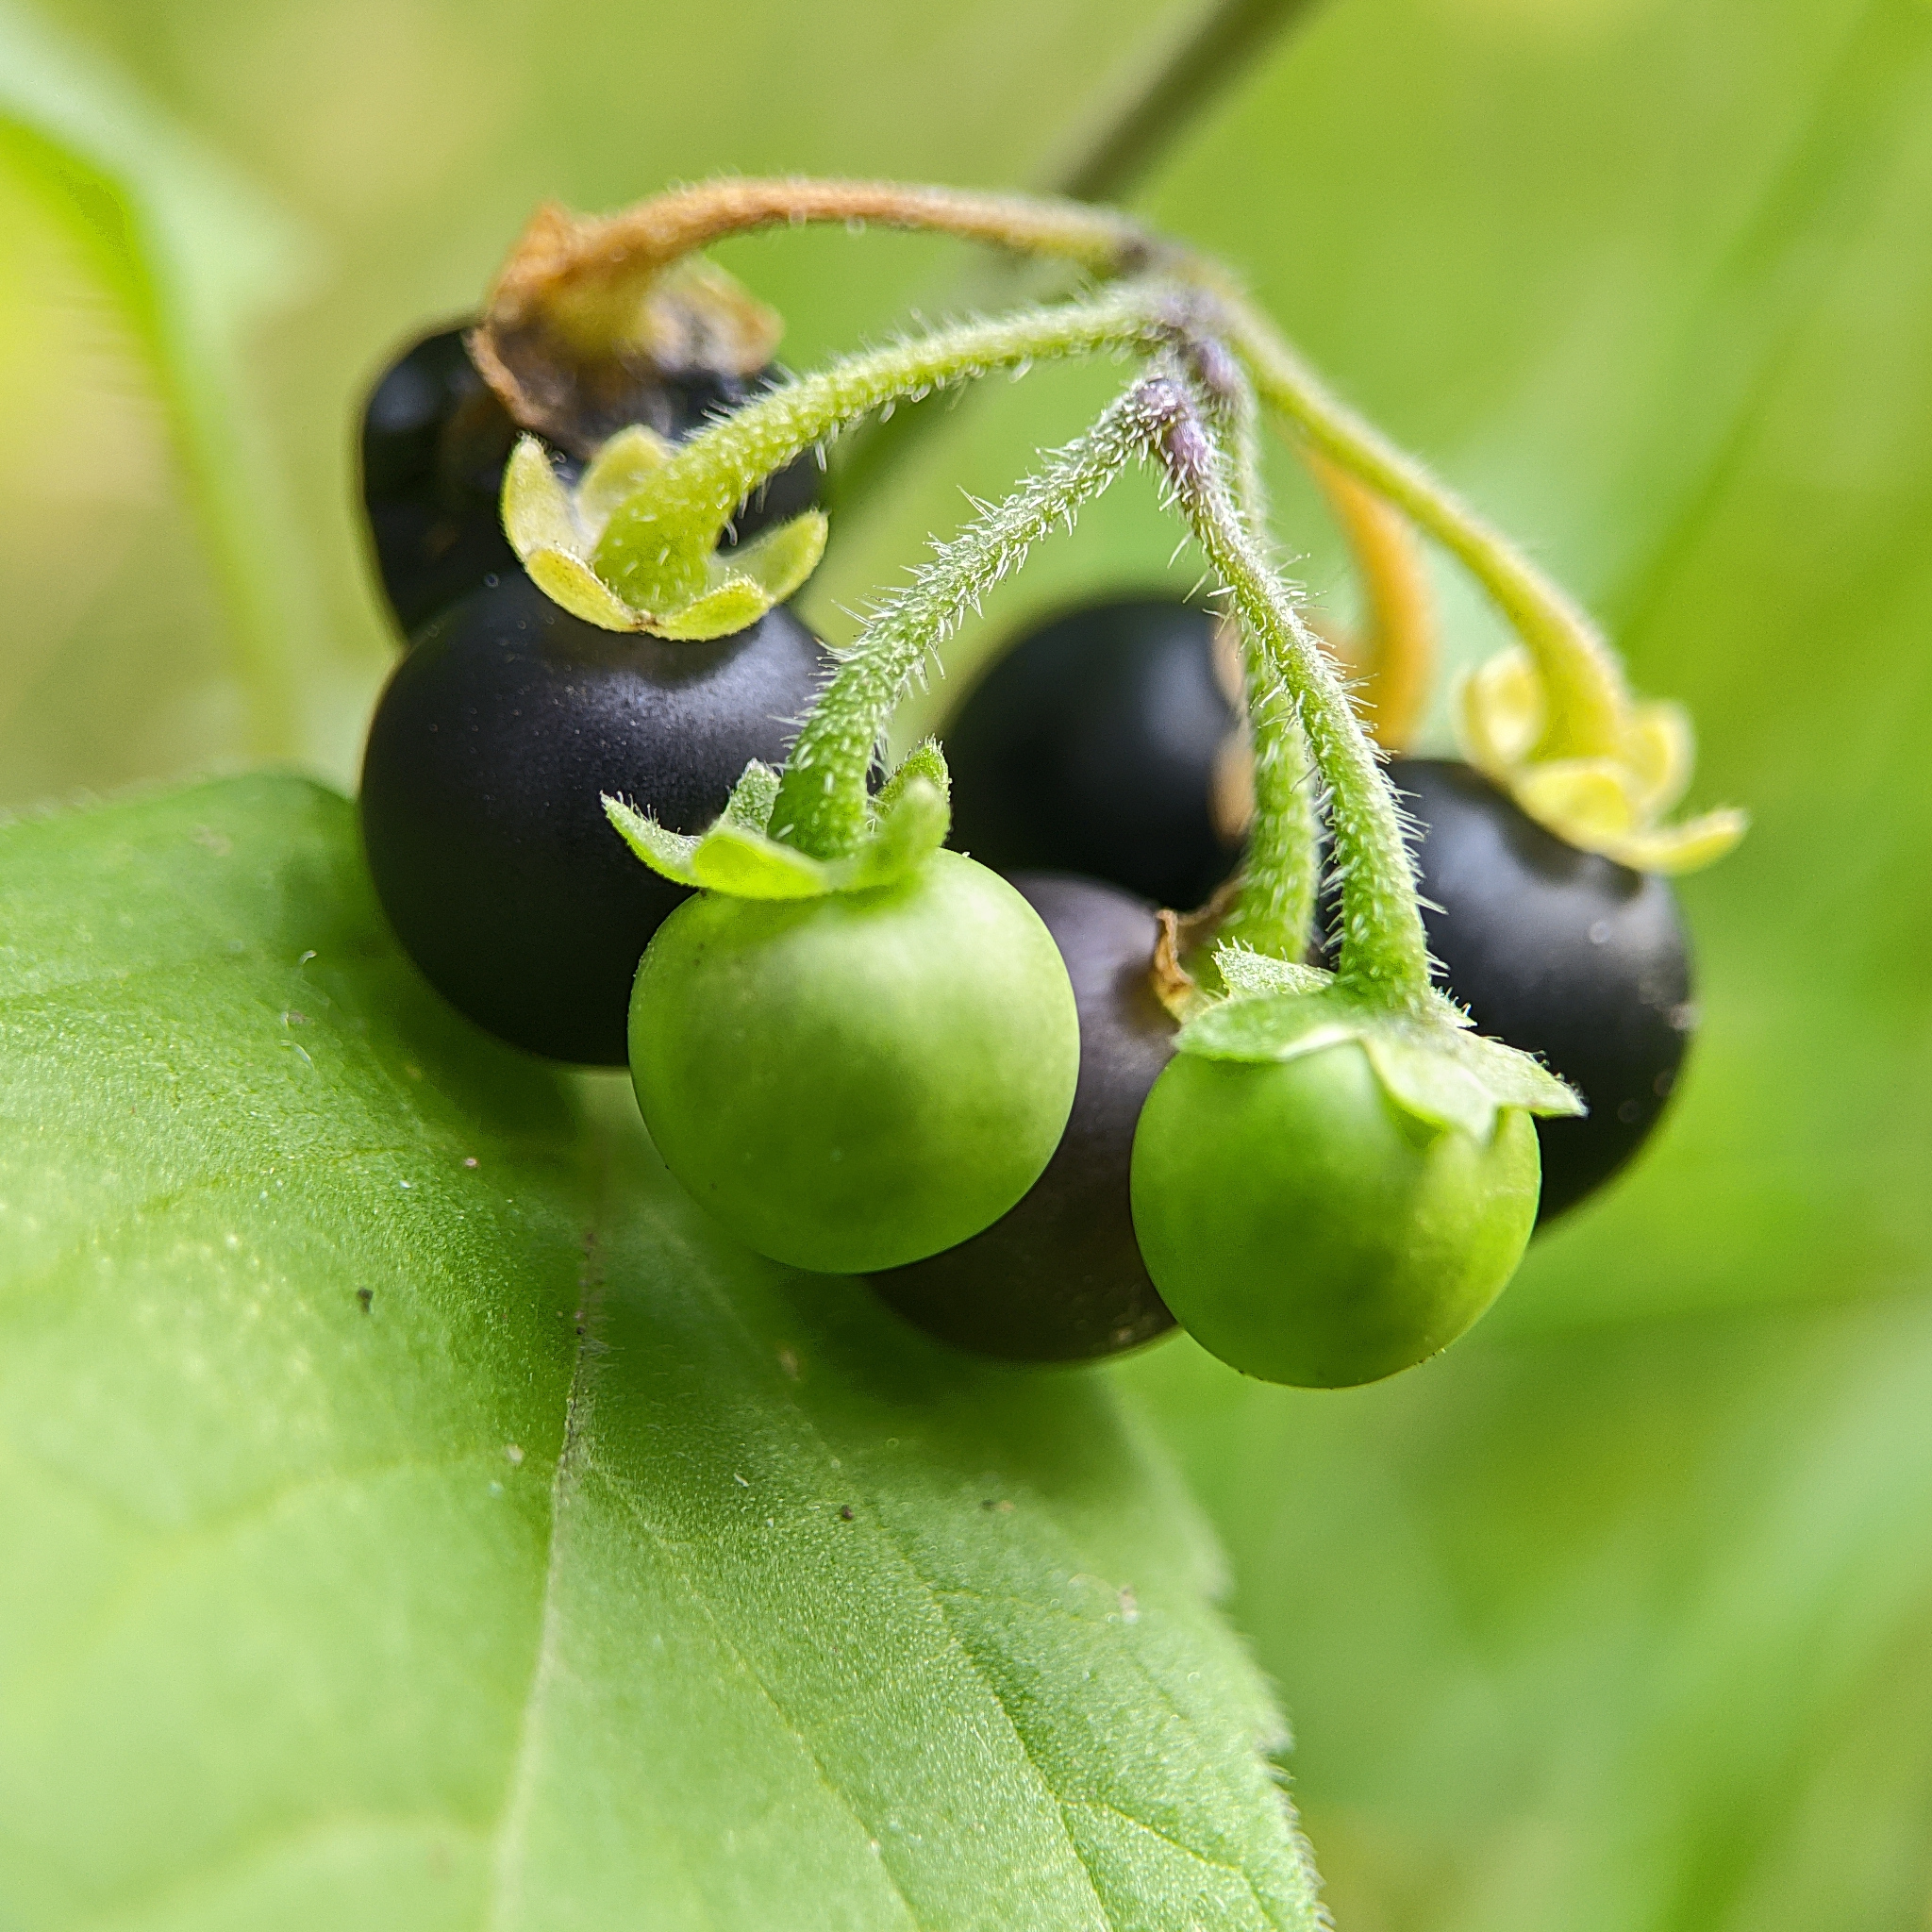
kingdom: Plantae
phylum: Tracheophyta
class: Magnoliopsida
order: Solanales
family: Solanaceae
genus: Solanum
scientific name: Solanum nigrum
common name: Black nightshade
